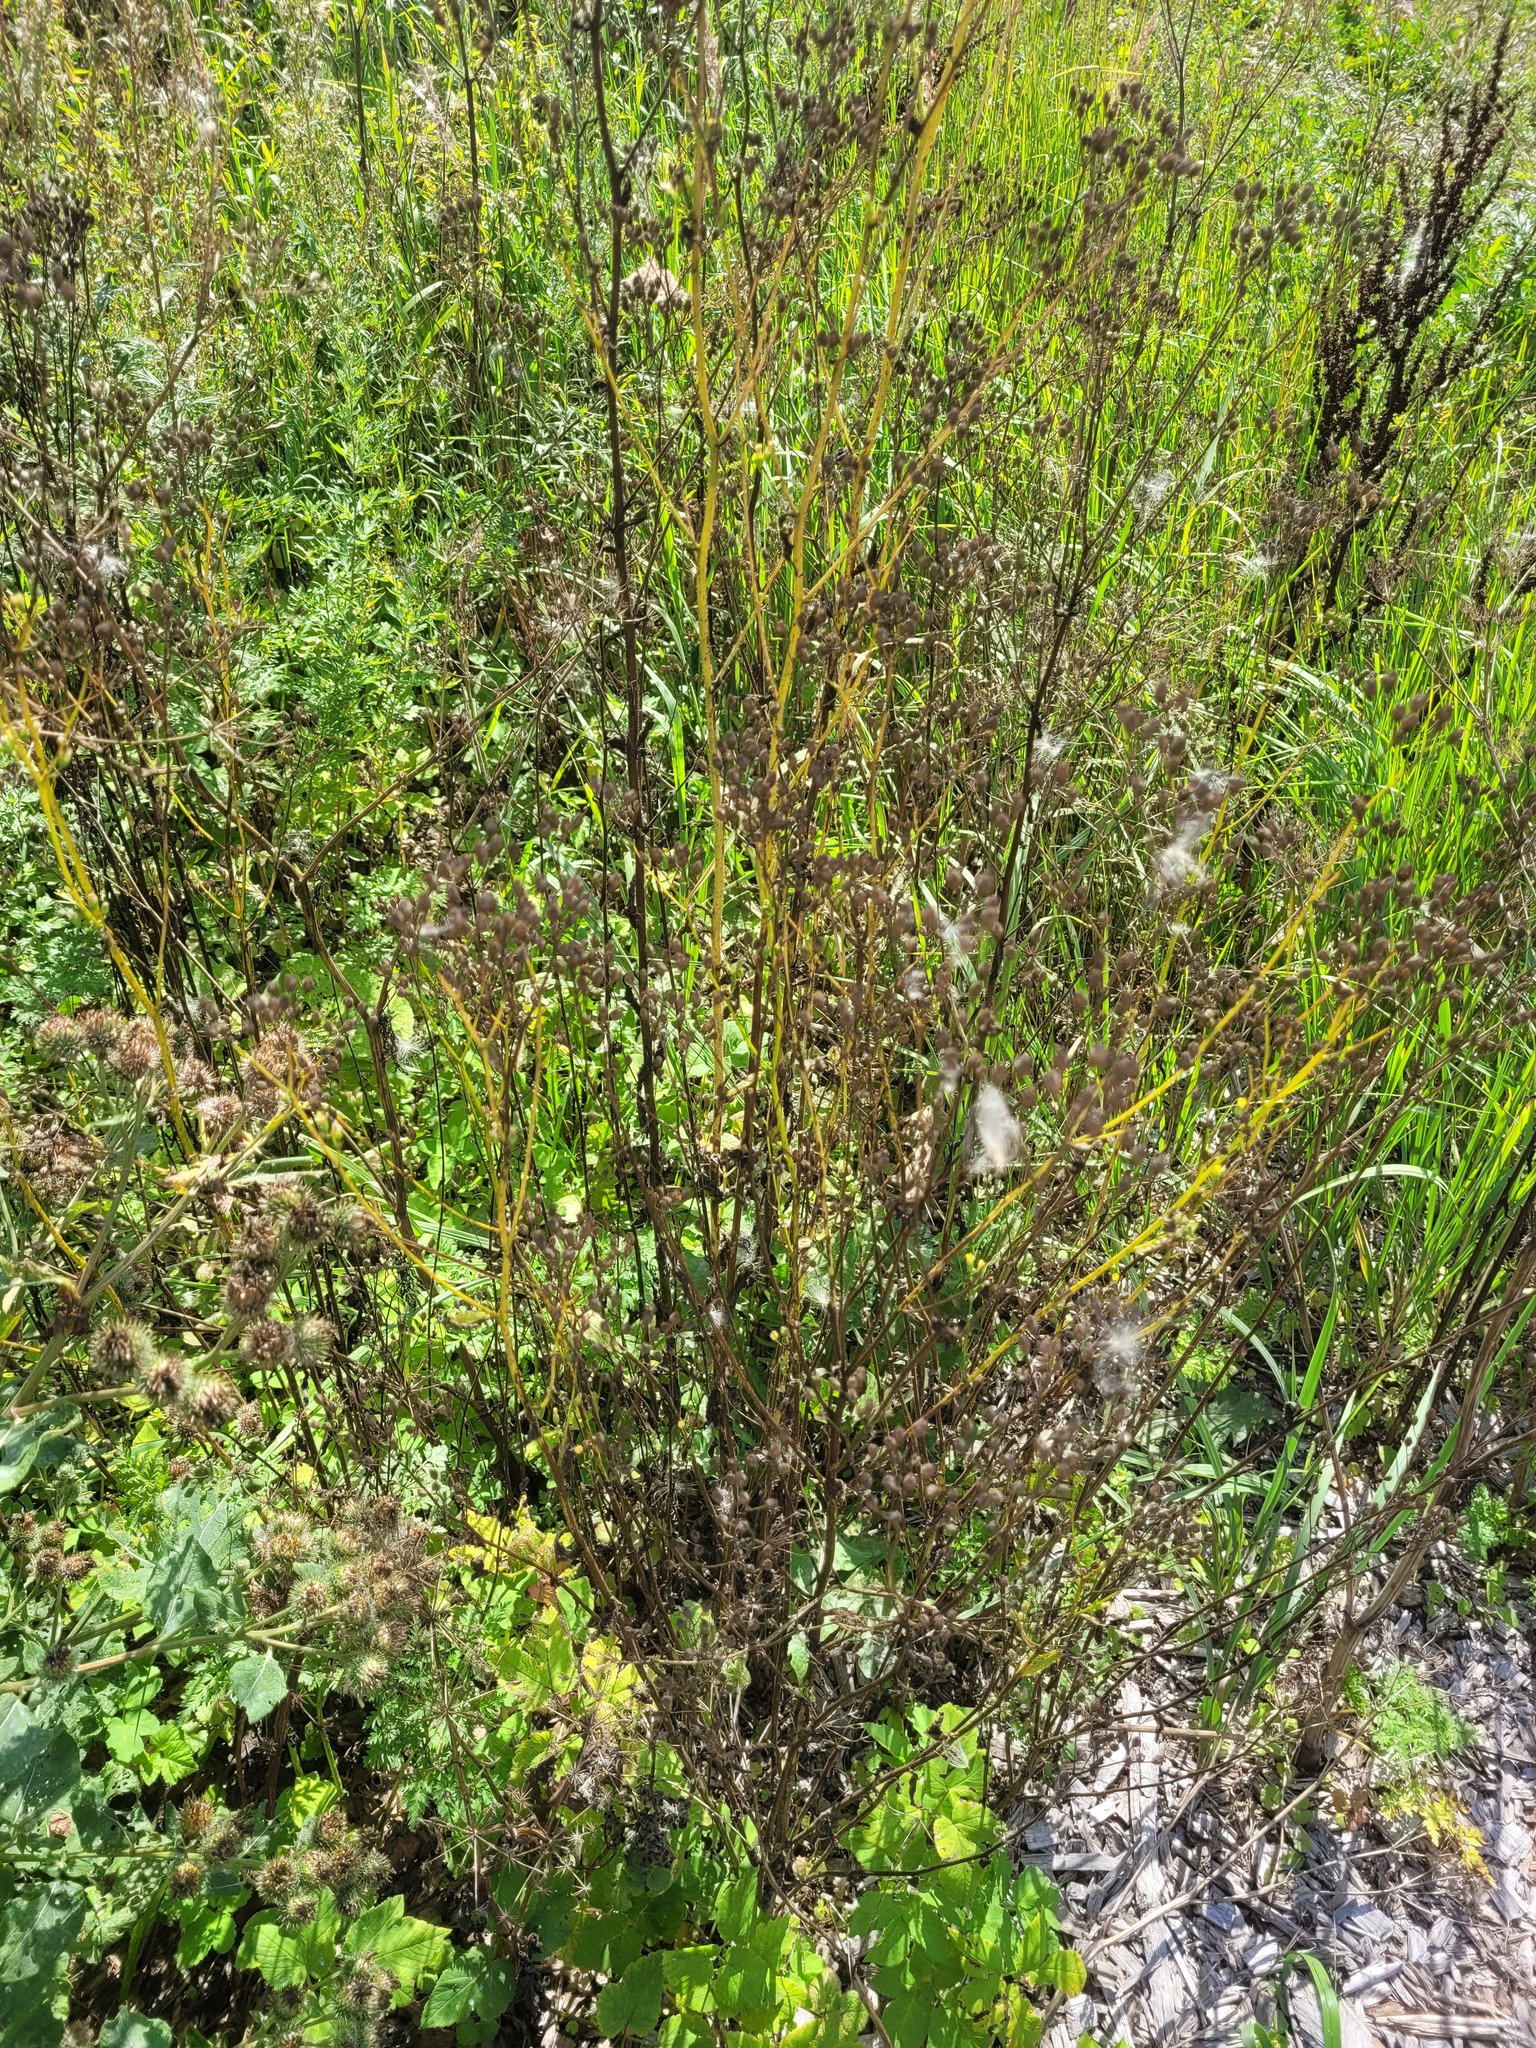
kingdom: Plantae
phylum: Tracheophyta
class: Magnoliopsida
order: Asterales
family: Asteraceae
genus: Lapsana
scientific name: Lapsana communis
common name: Nipplewort
